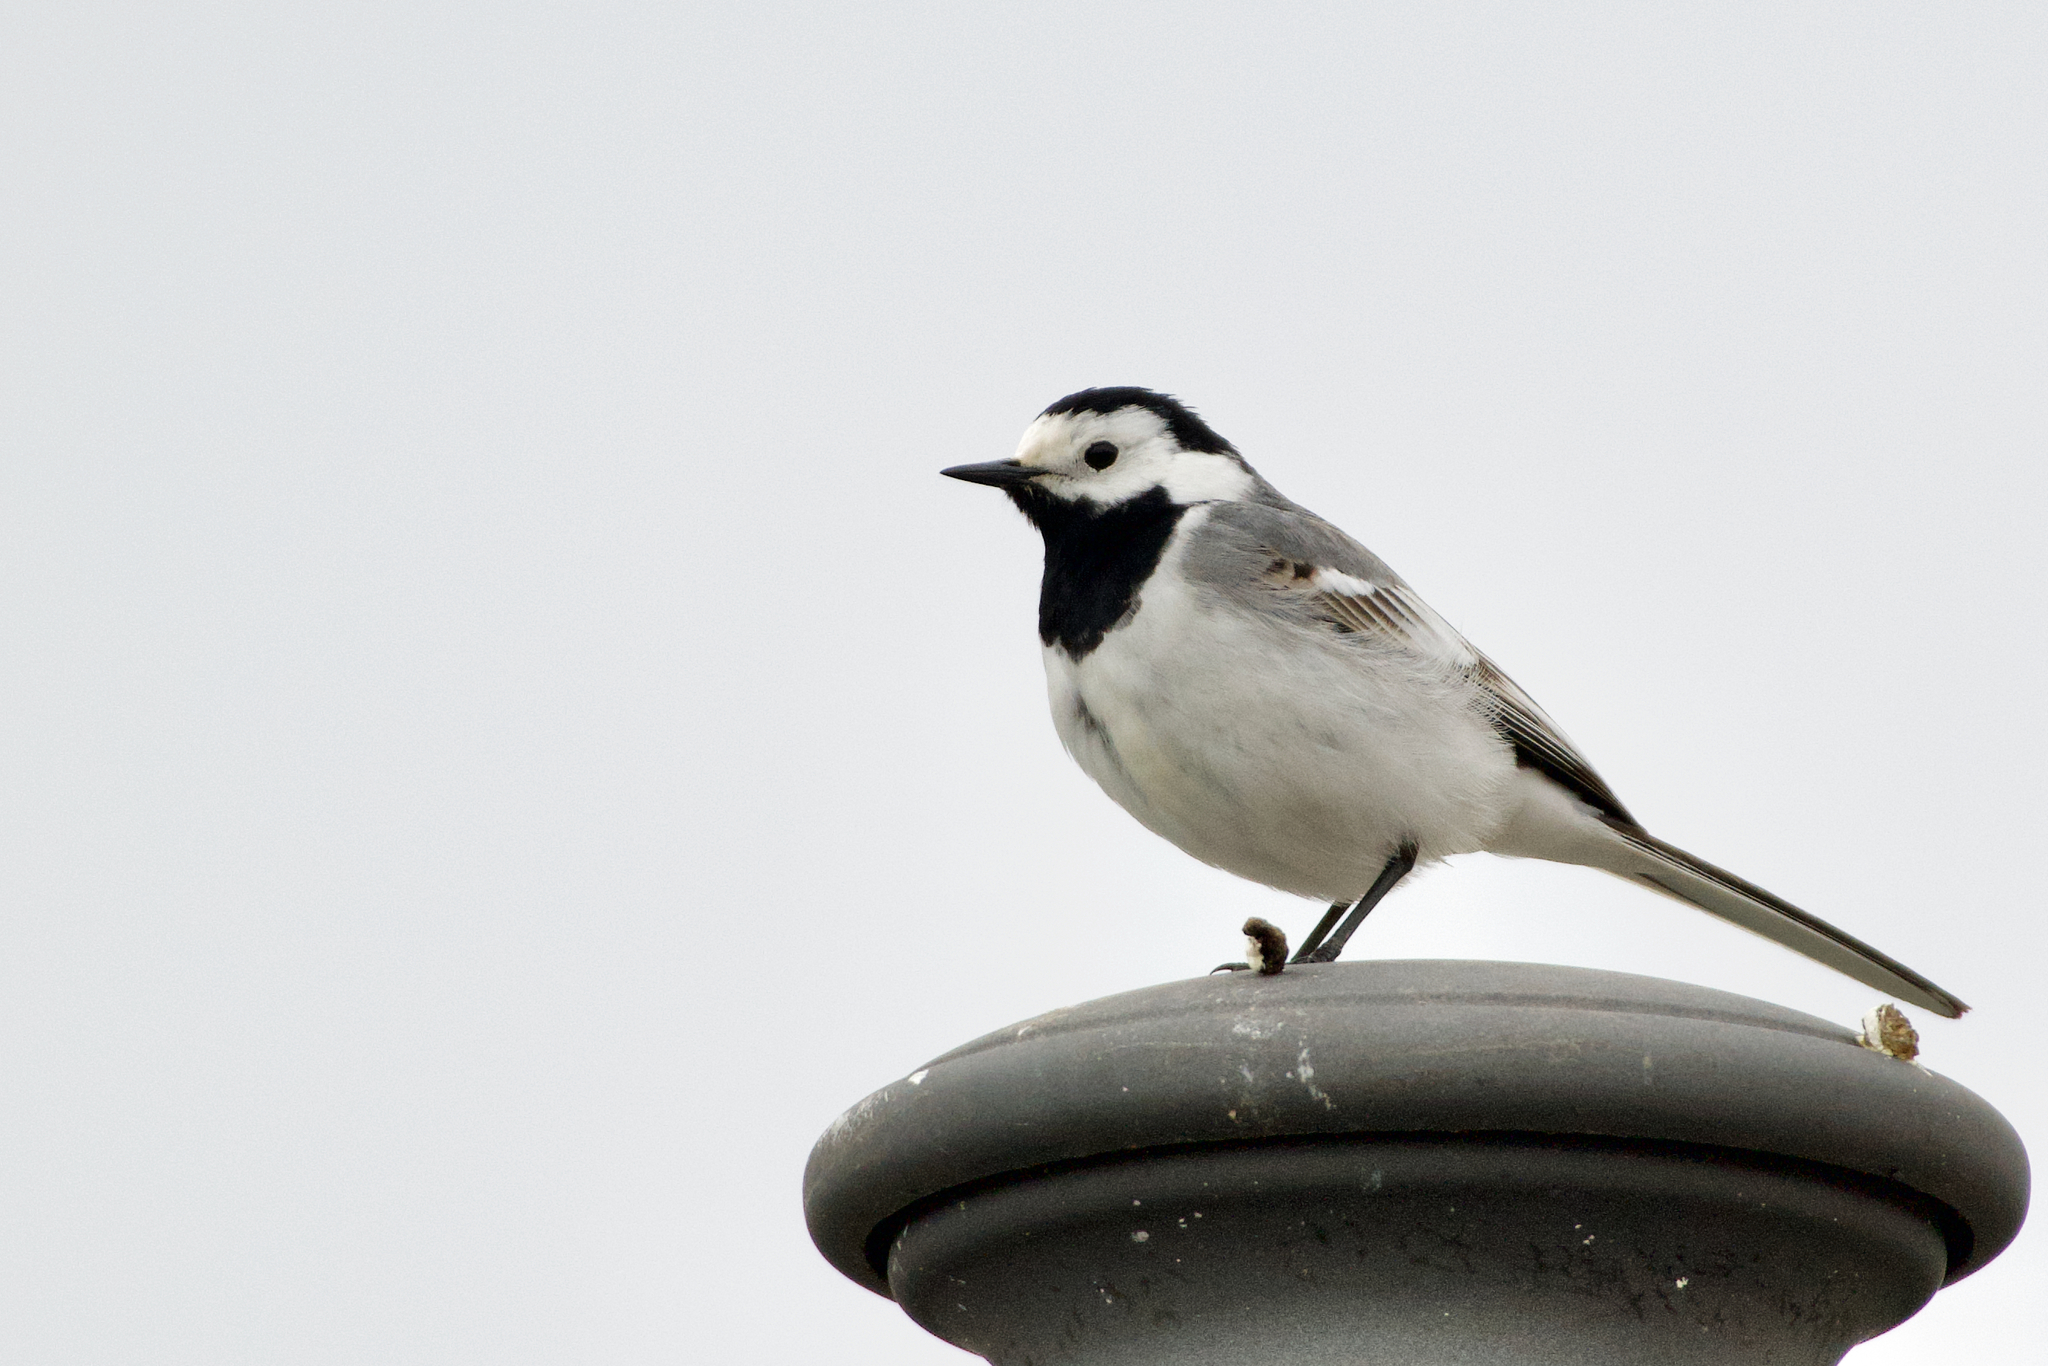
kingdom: Animalia
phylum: Chordata
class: Aves
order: Passeriformes
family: Motacillidae
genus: Motacilla
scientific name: Motacilla alba
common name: White wagtail
